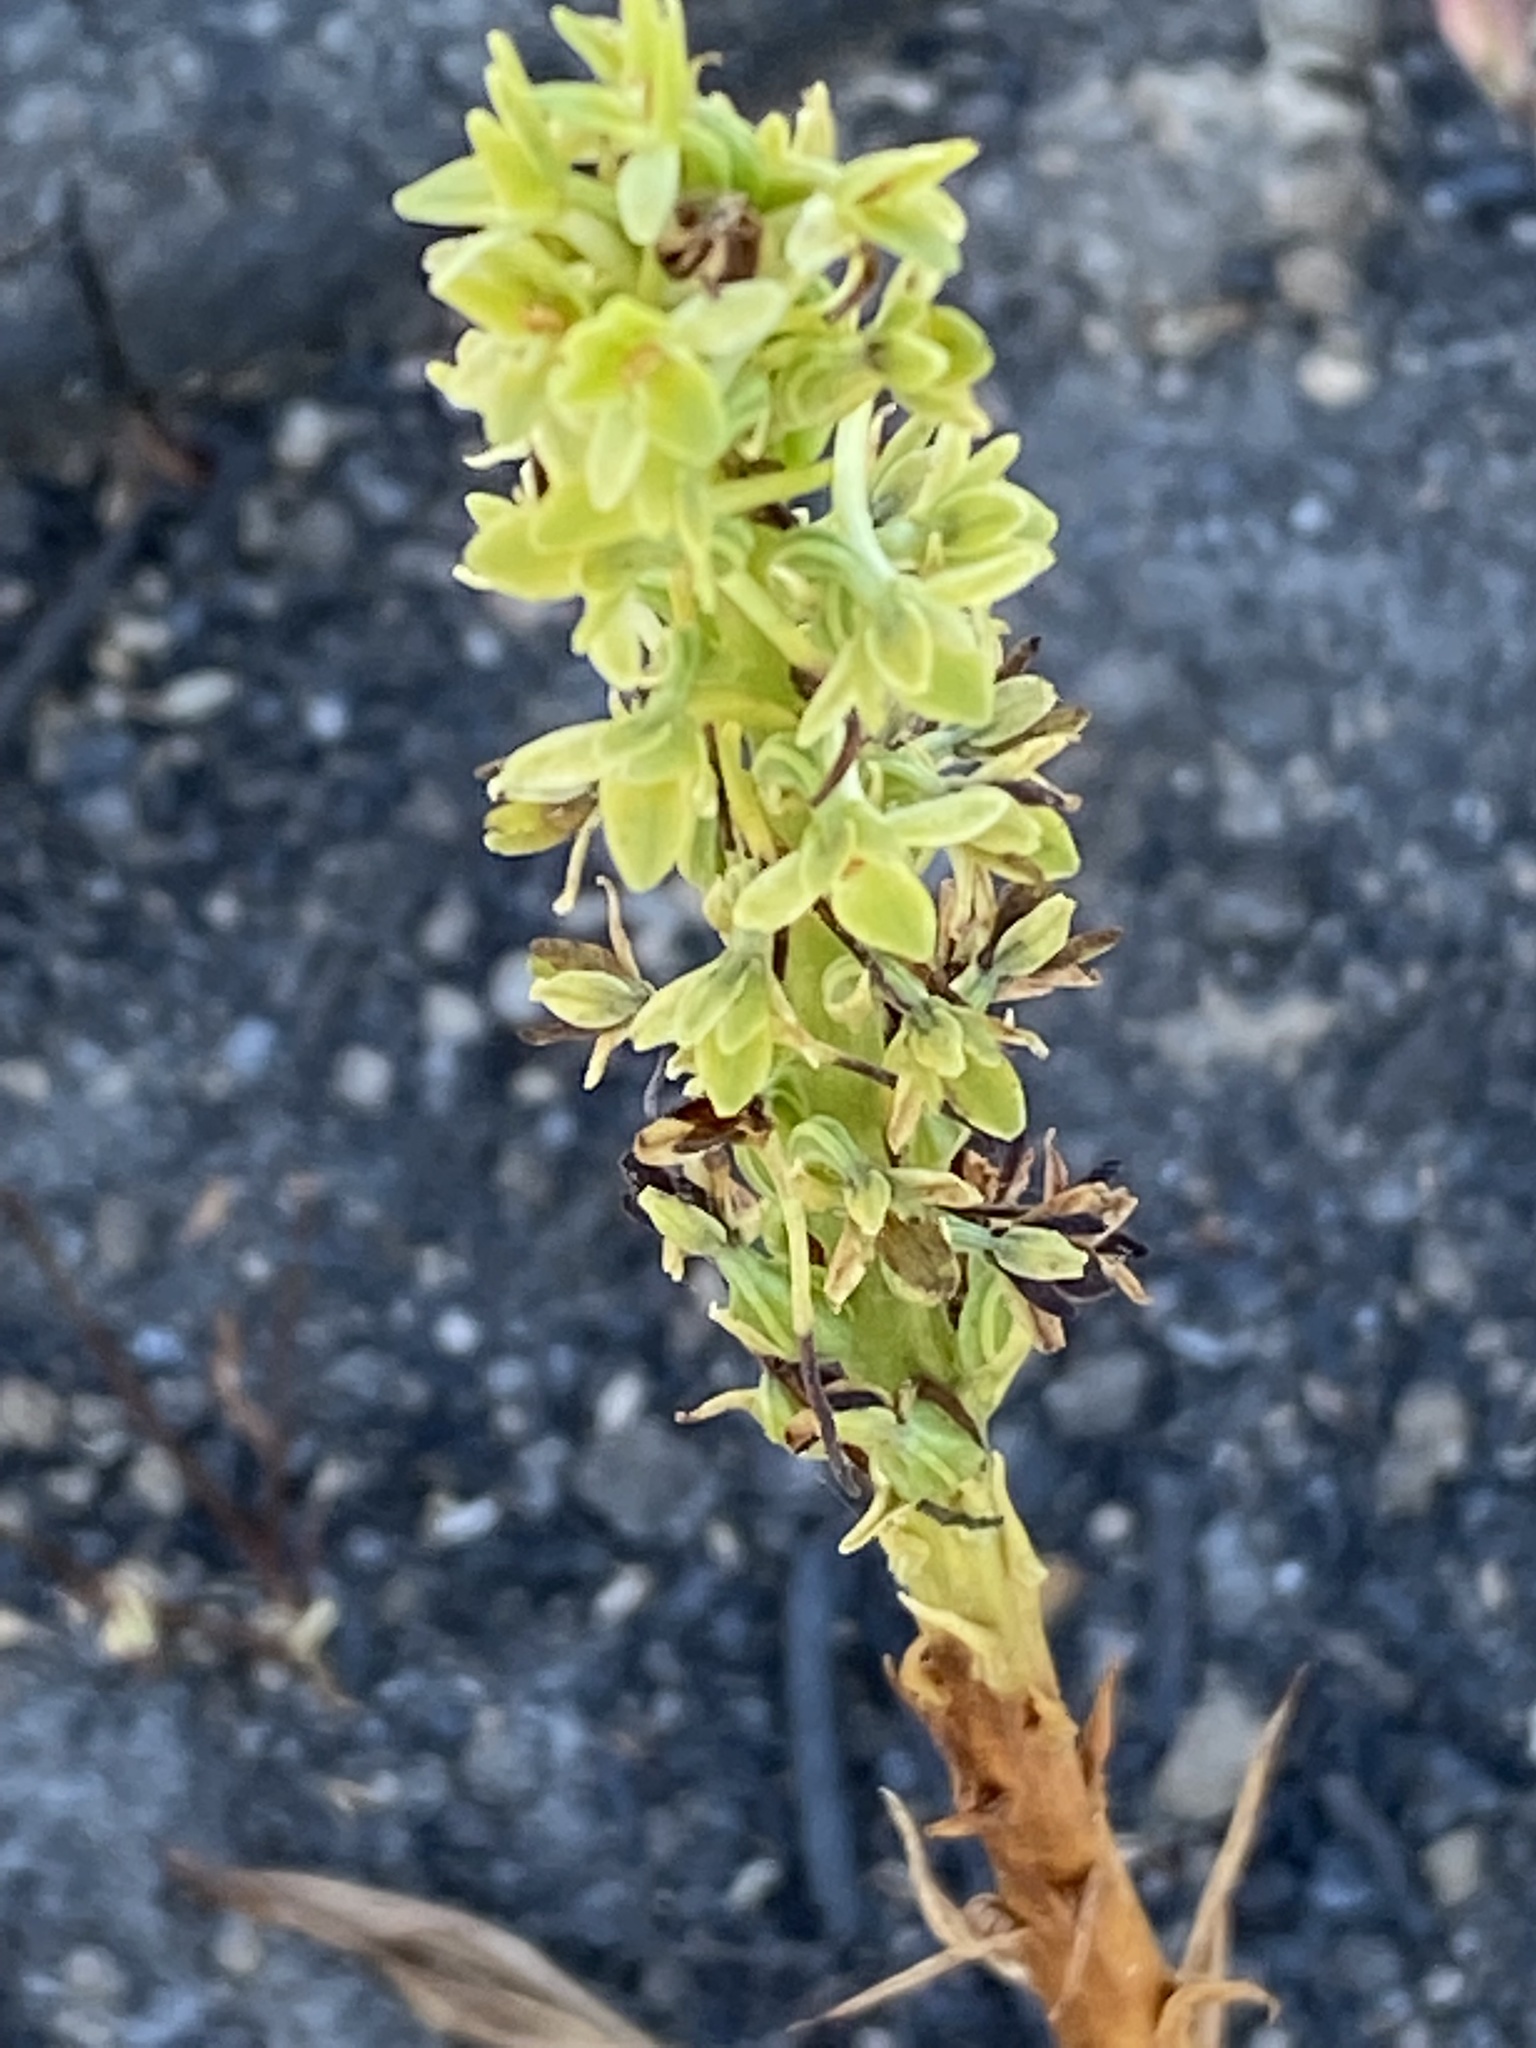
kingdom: Plantae
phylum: Tracheophyta
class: Liliopsida
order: Asparagales
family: Orchidaceae
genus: Platanthera
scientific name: Platanthera michaelii
